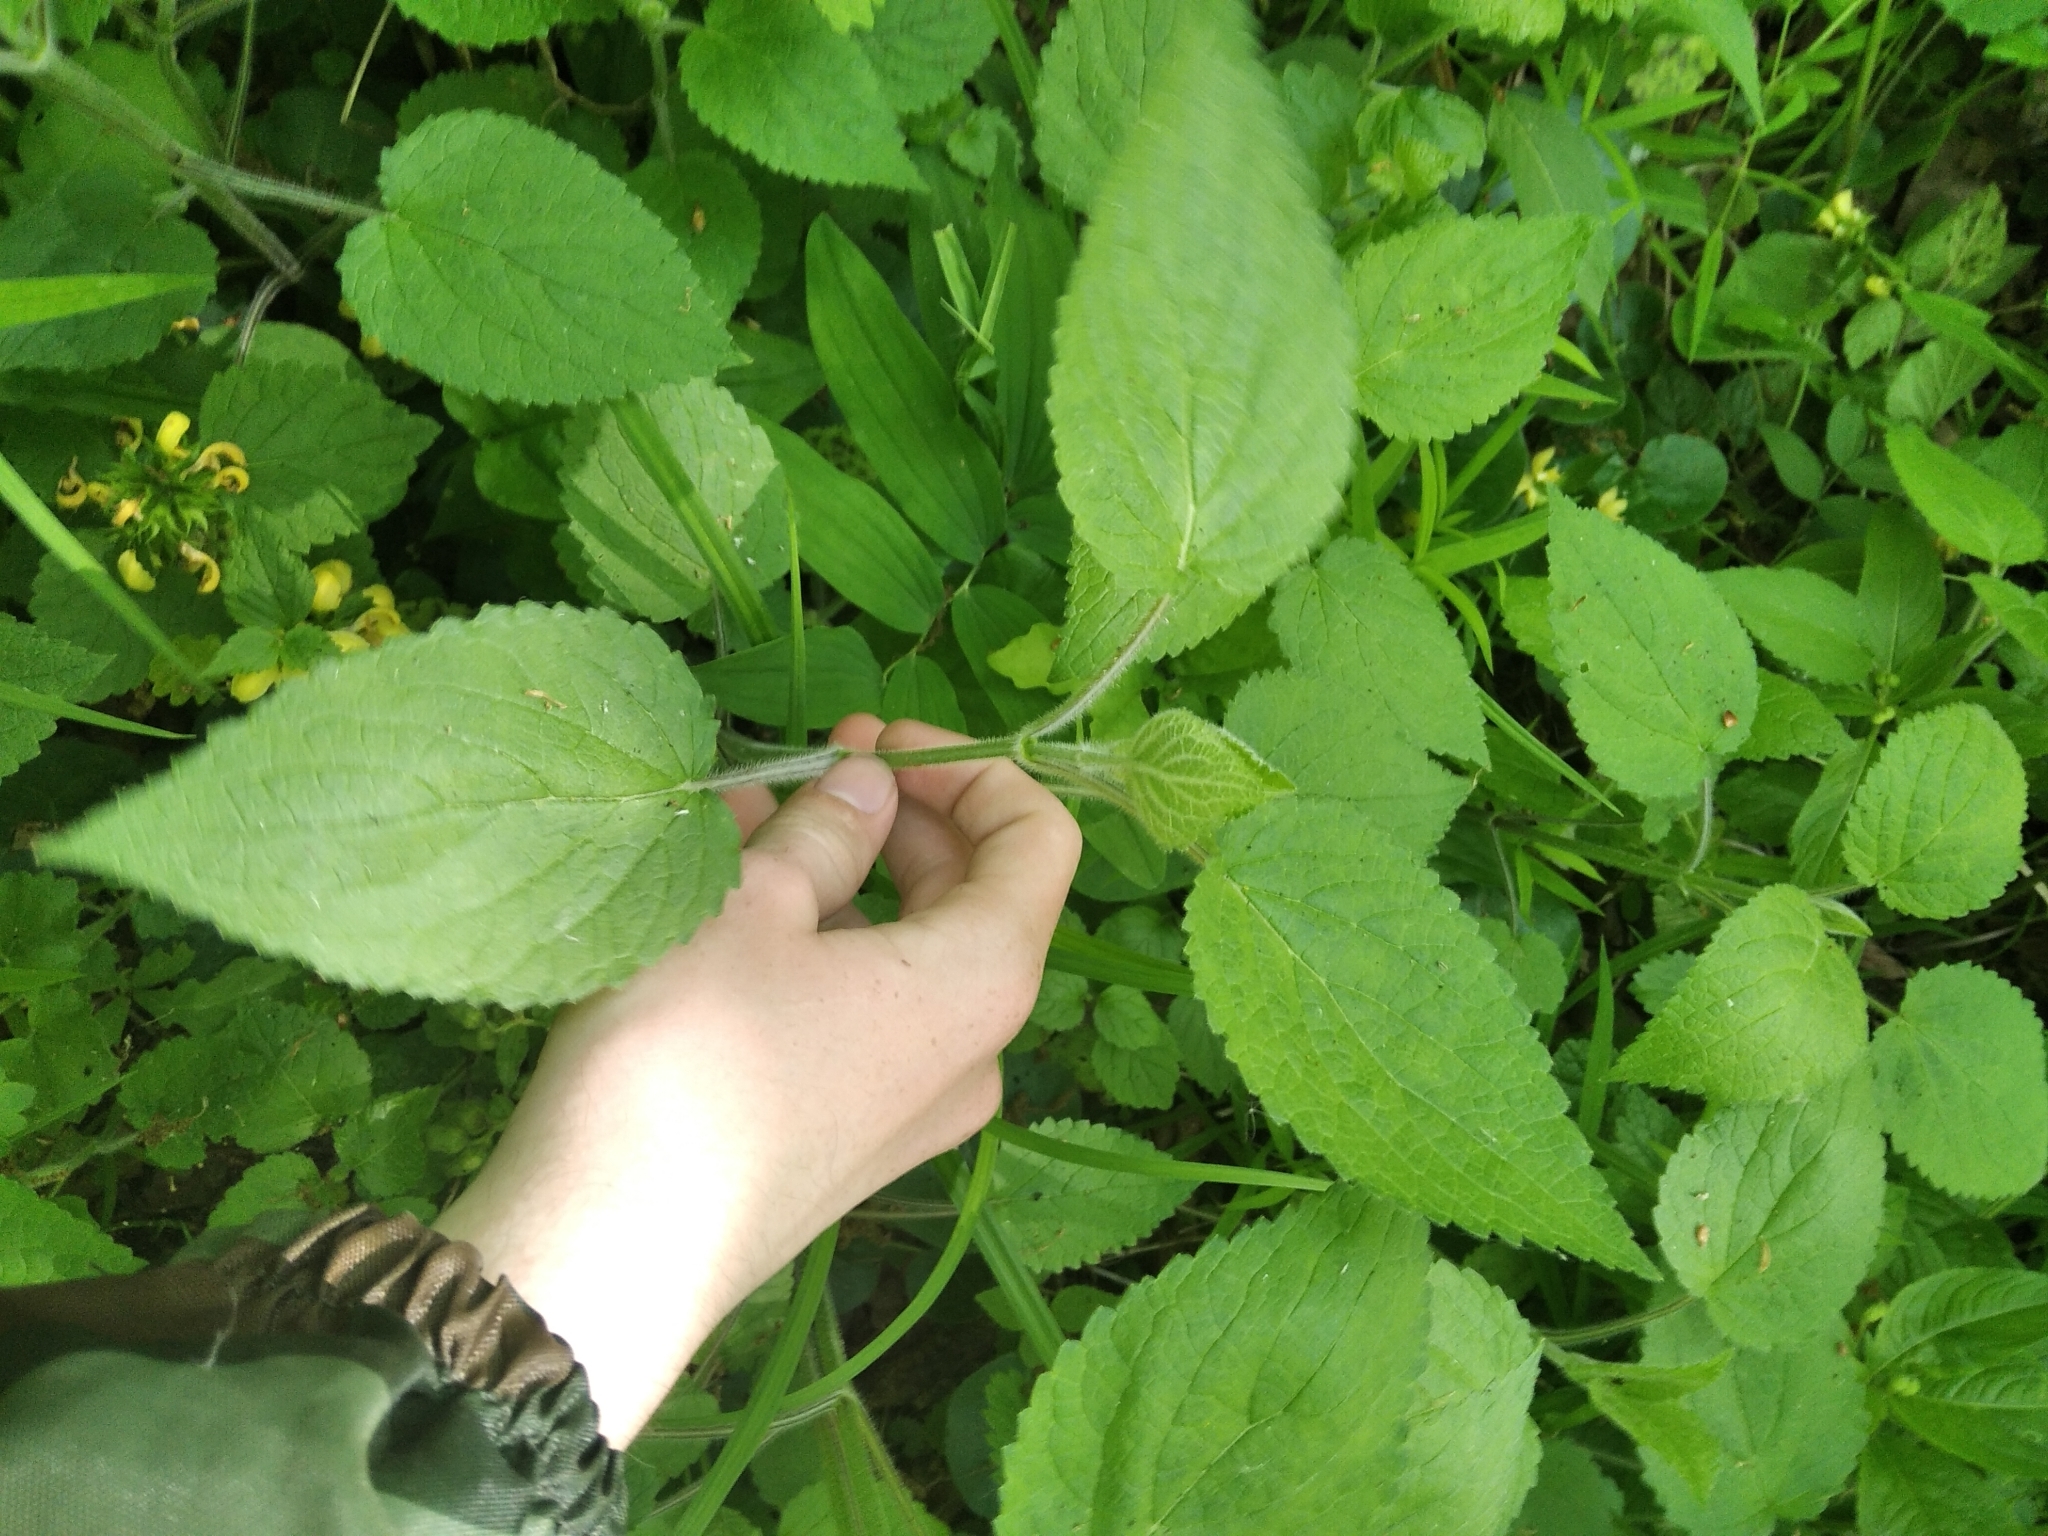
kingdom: Plantae
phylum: Tracheophyta
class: Magnoliopsida
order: Lamiales
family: Lamiaceae
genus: Stachys
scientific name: Stachys sylvatica
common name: Hedge woundwort
